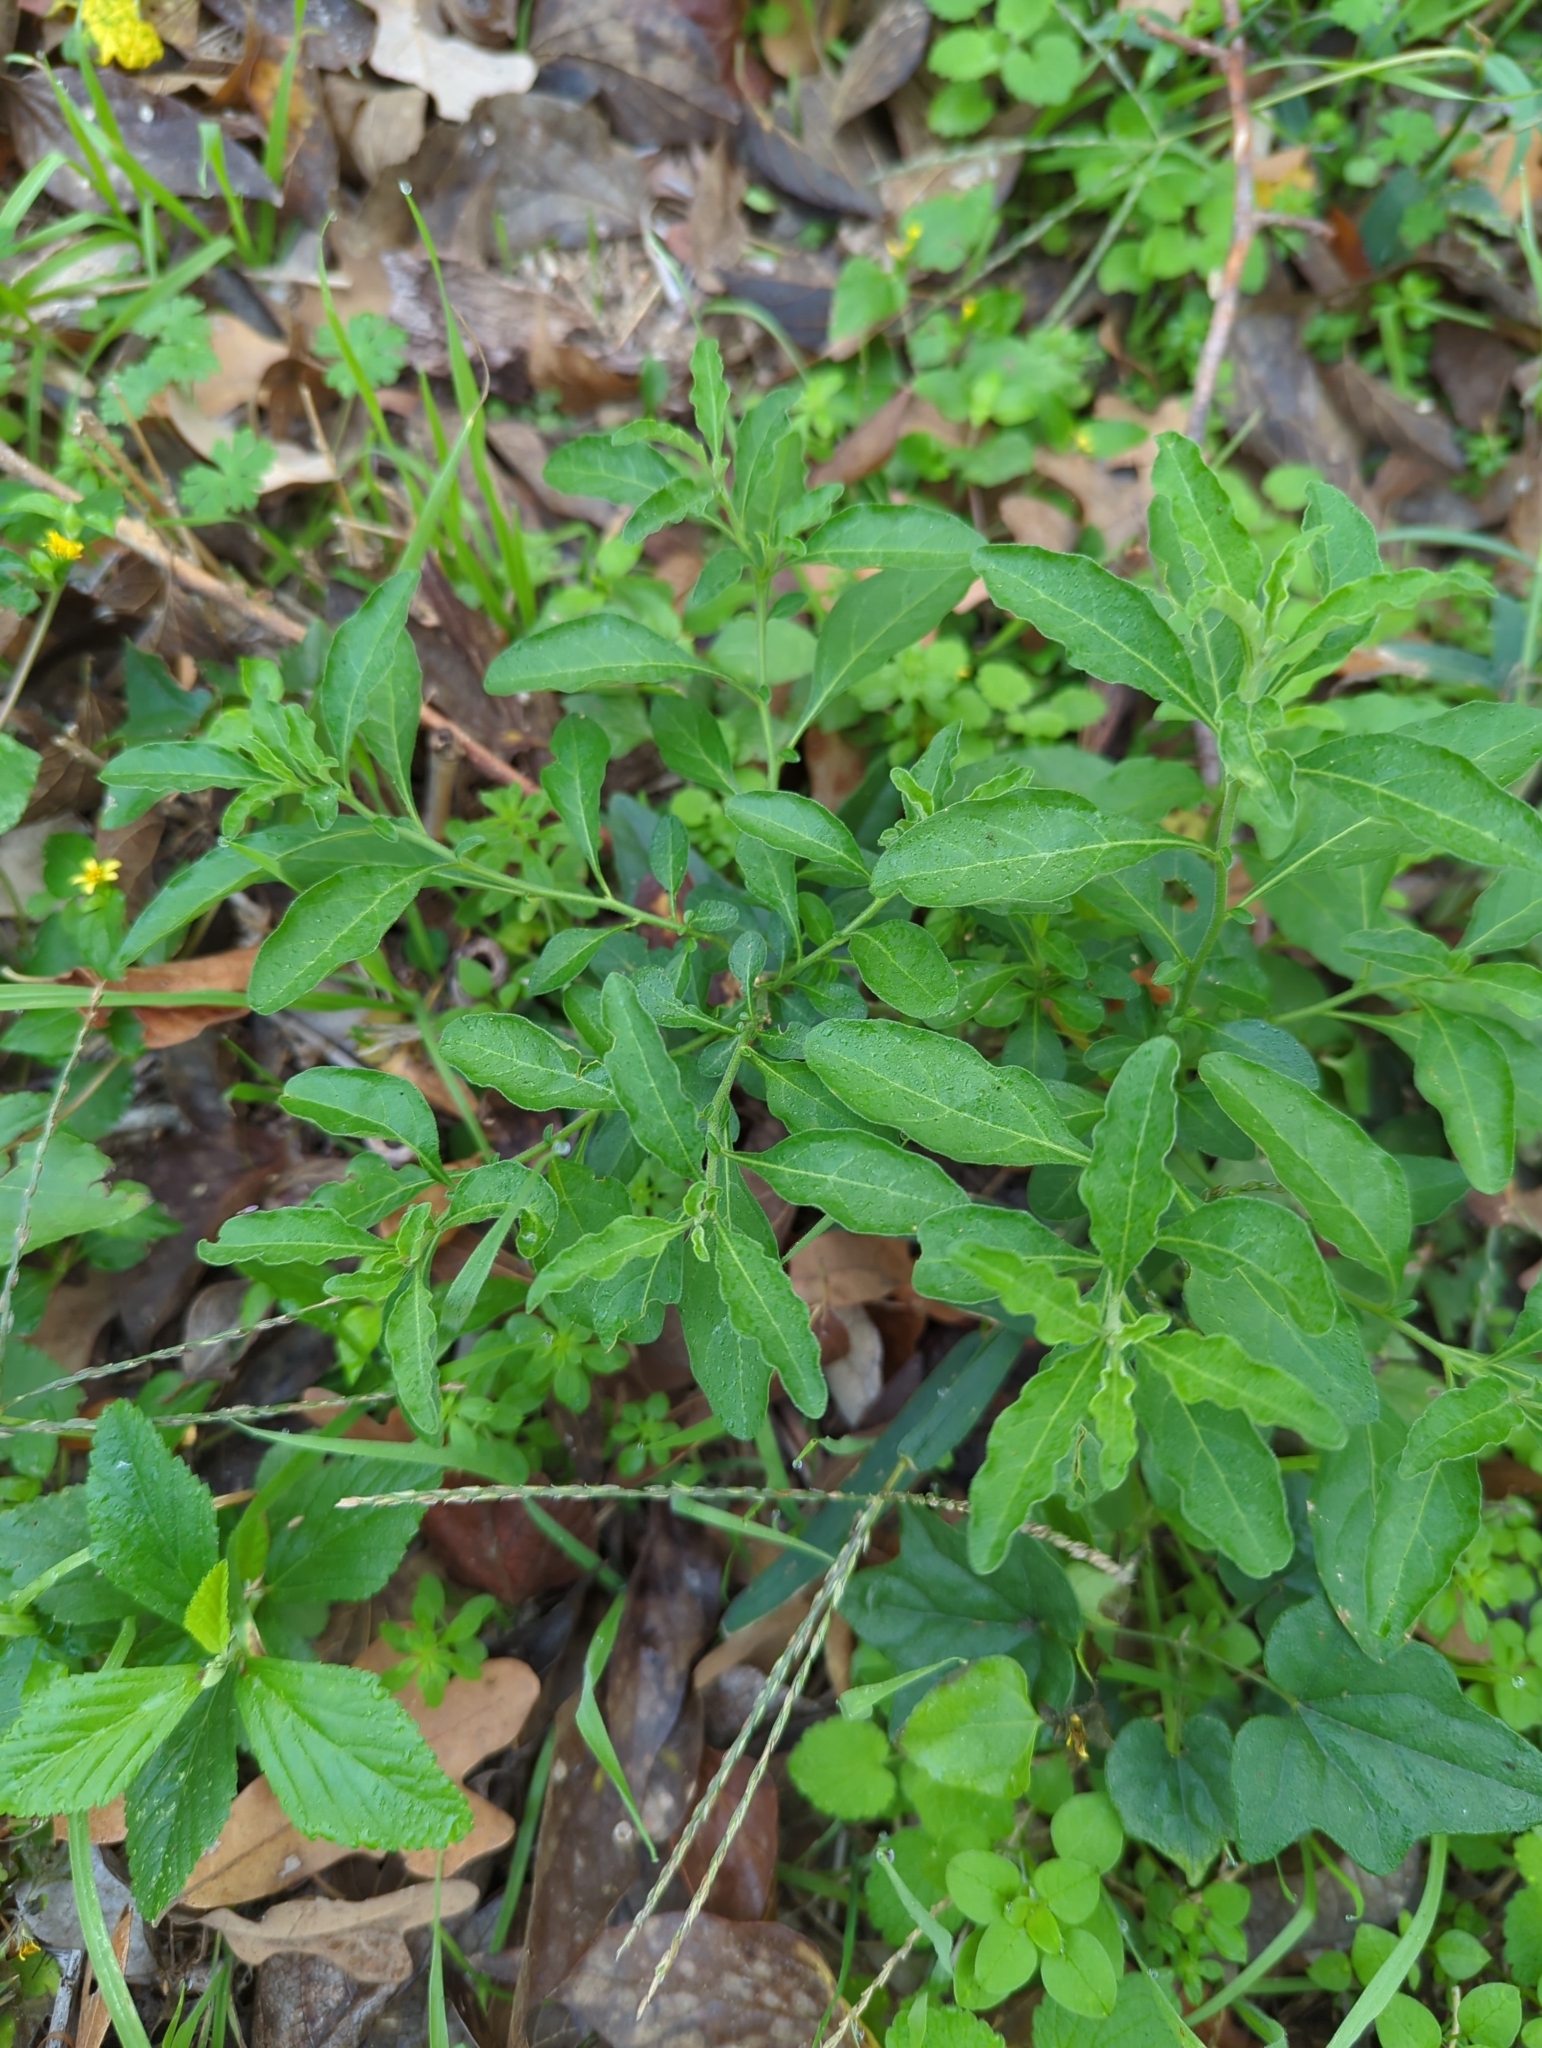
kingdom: Plantae
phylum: Tracheophyta
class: Magnoliopsida
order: Solanales
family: Solanaceae
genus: Solanum
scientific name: Solanum pseudocapsicum
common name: Jerusalem cherry
